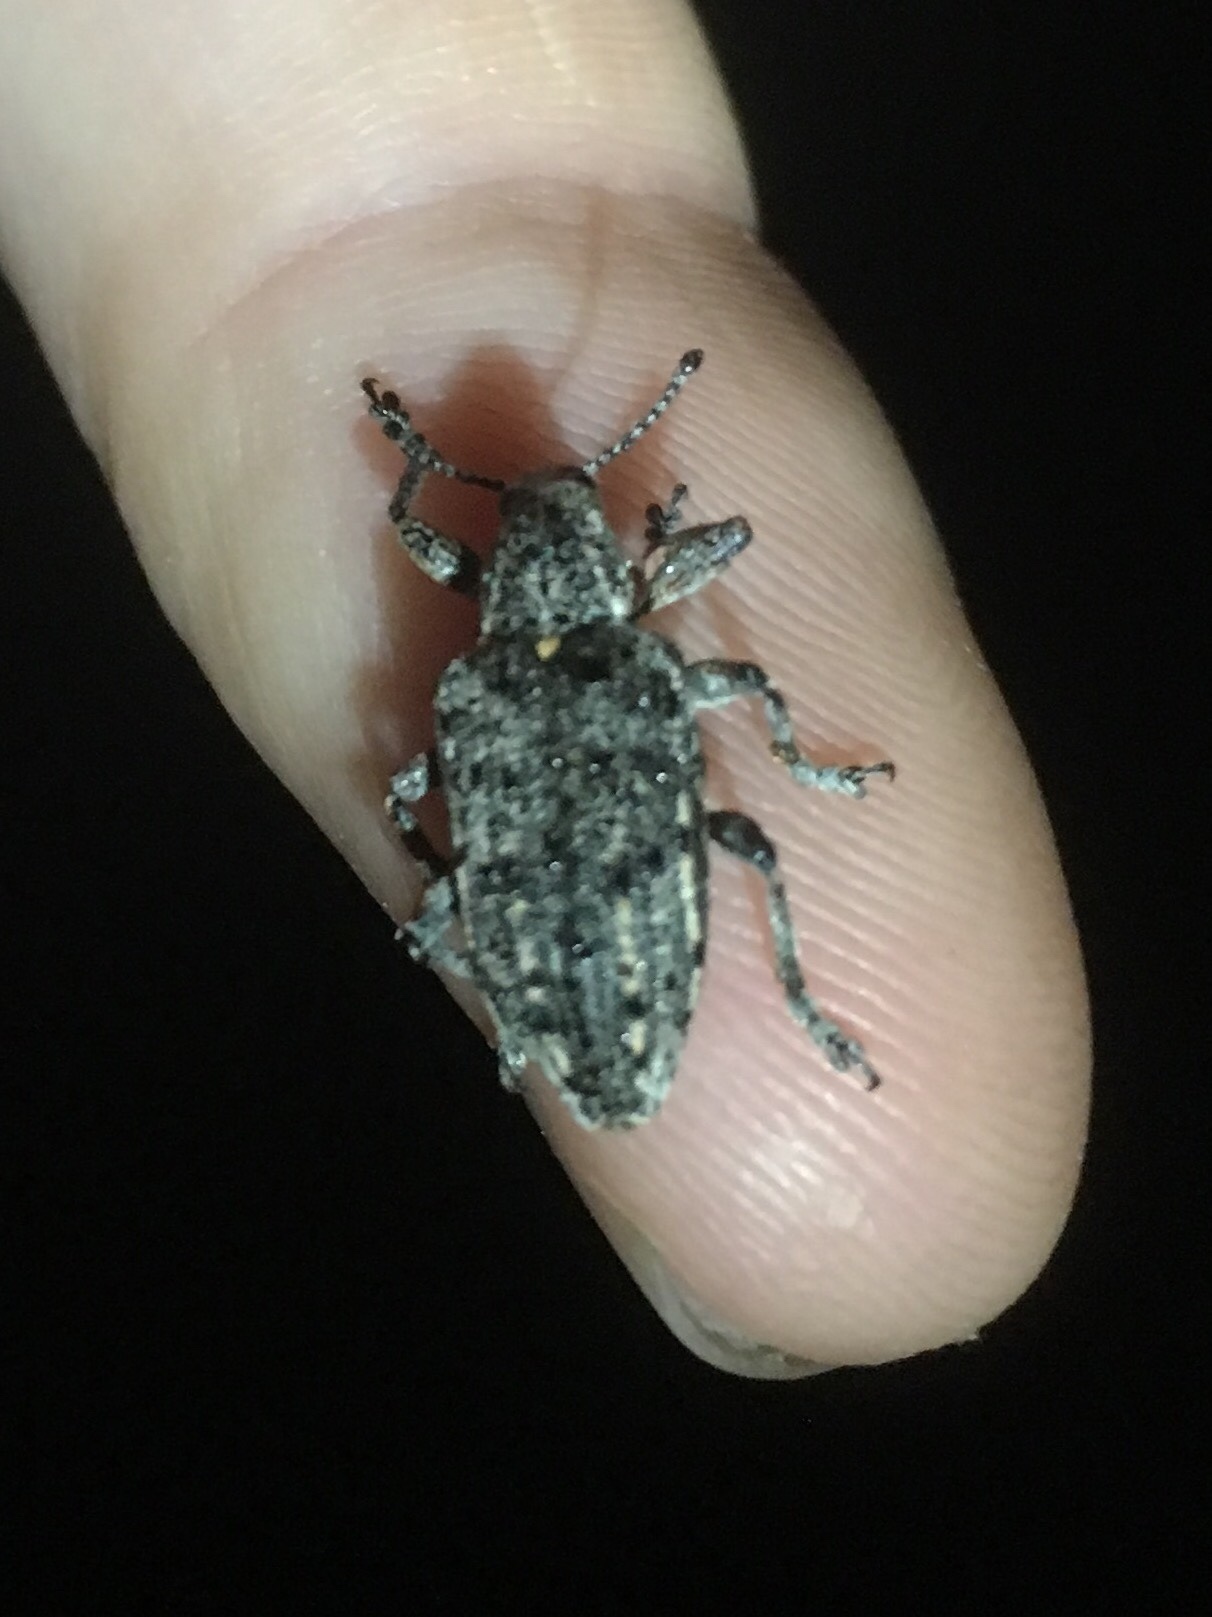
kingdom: Animalia
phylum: Arthropoda
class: Insecta
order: Coleoptera
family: Ithyceridae
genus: Ithycerus
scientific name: Ithycerus noveboracensis
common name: New york weevil
